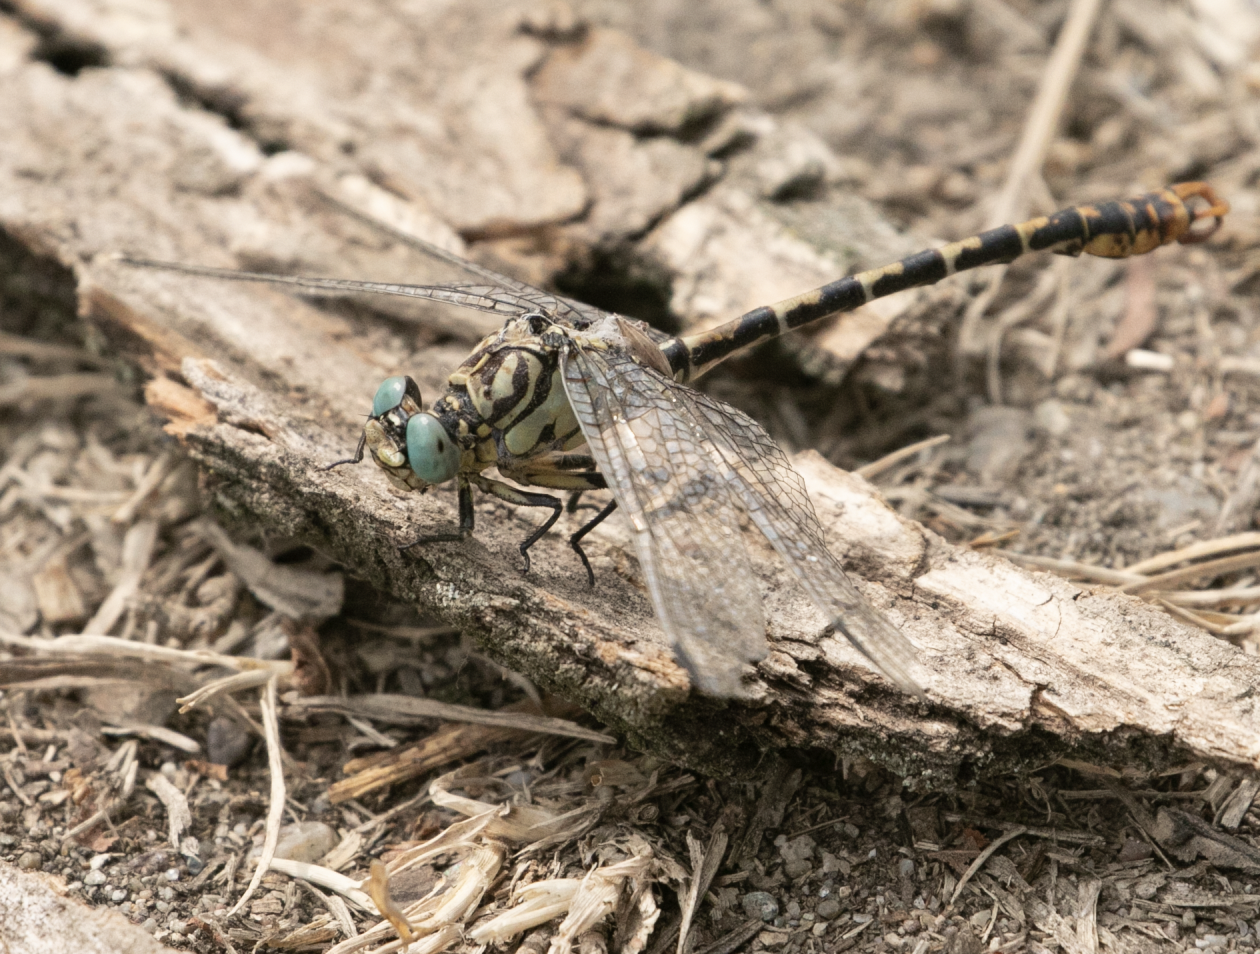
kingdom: Animalia
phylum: Arthropoda
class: Insecta
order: Odonata
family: Gomphidae
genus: Onychogomphus
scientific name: Onychogomphus forcipatus
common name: Small pincertail
